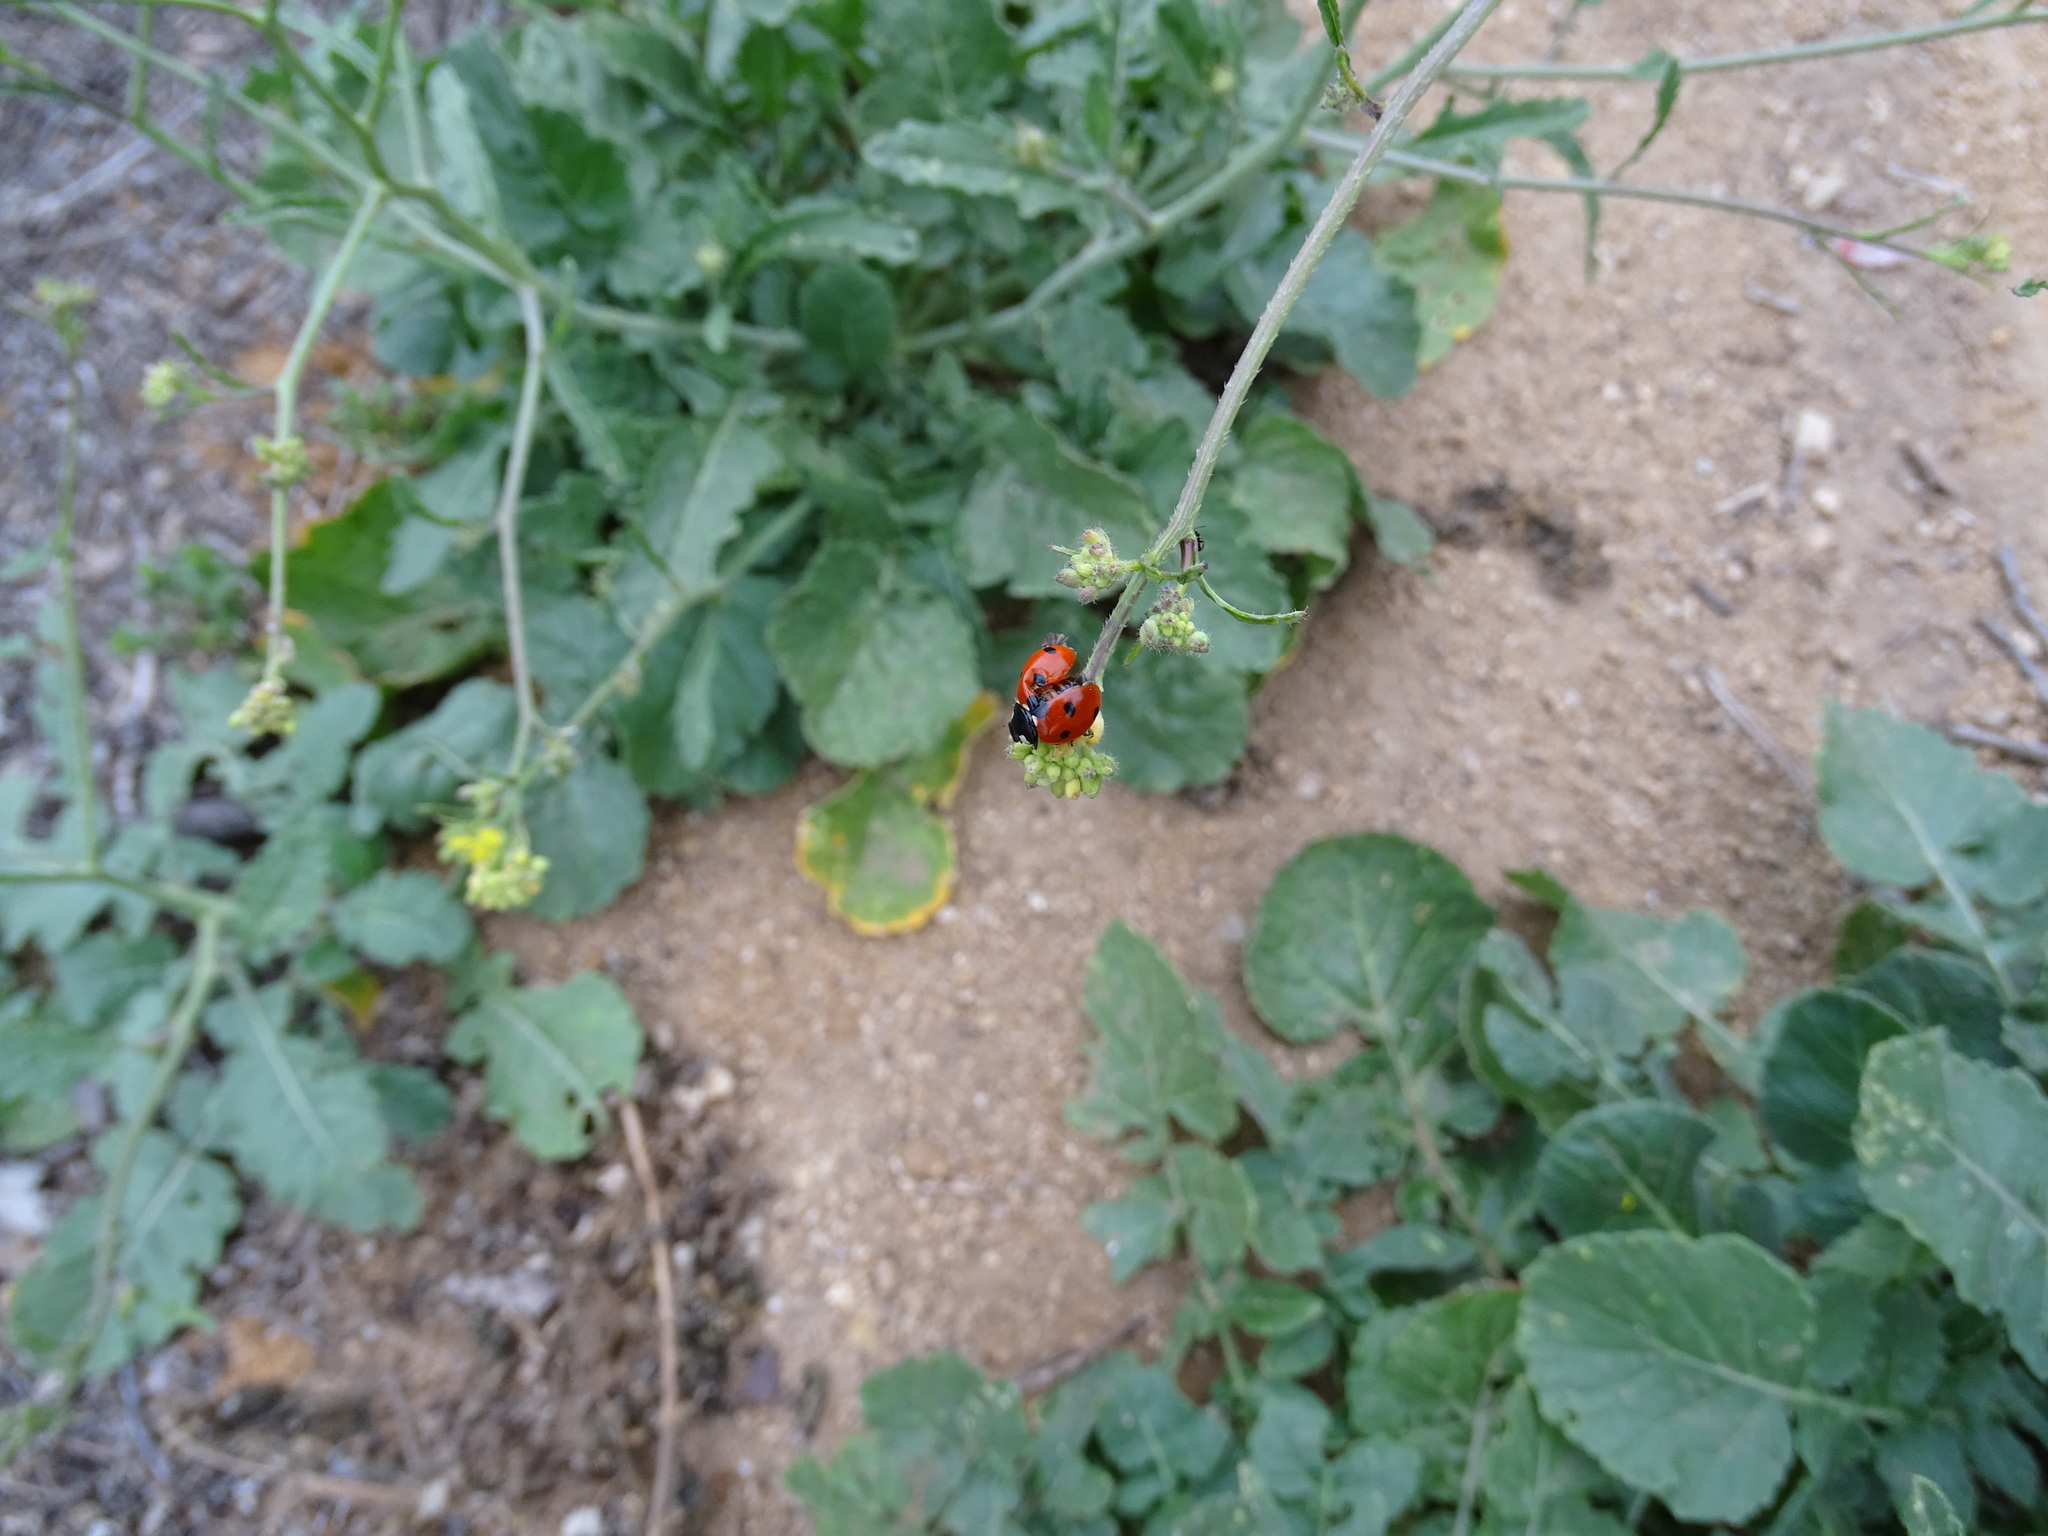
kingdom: Animalia
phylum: Arthropoda
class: Insecta
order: Coleoptera
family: Coccinellidae
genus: Coccinella
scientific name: Coccinella septempunctata
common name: Sevenspotted lady beetle
